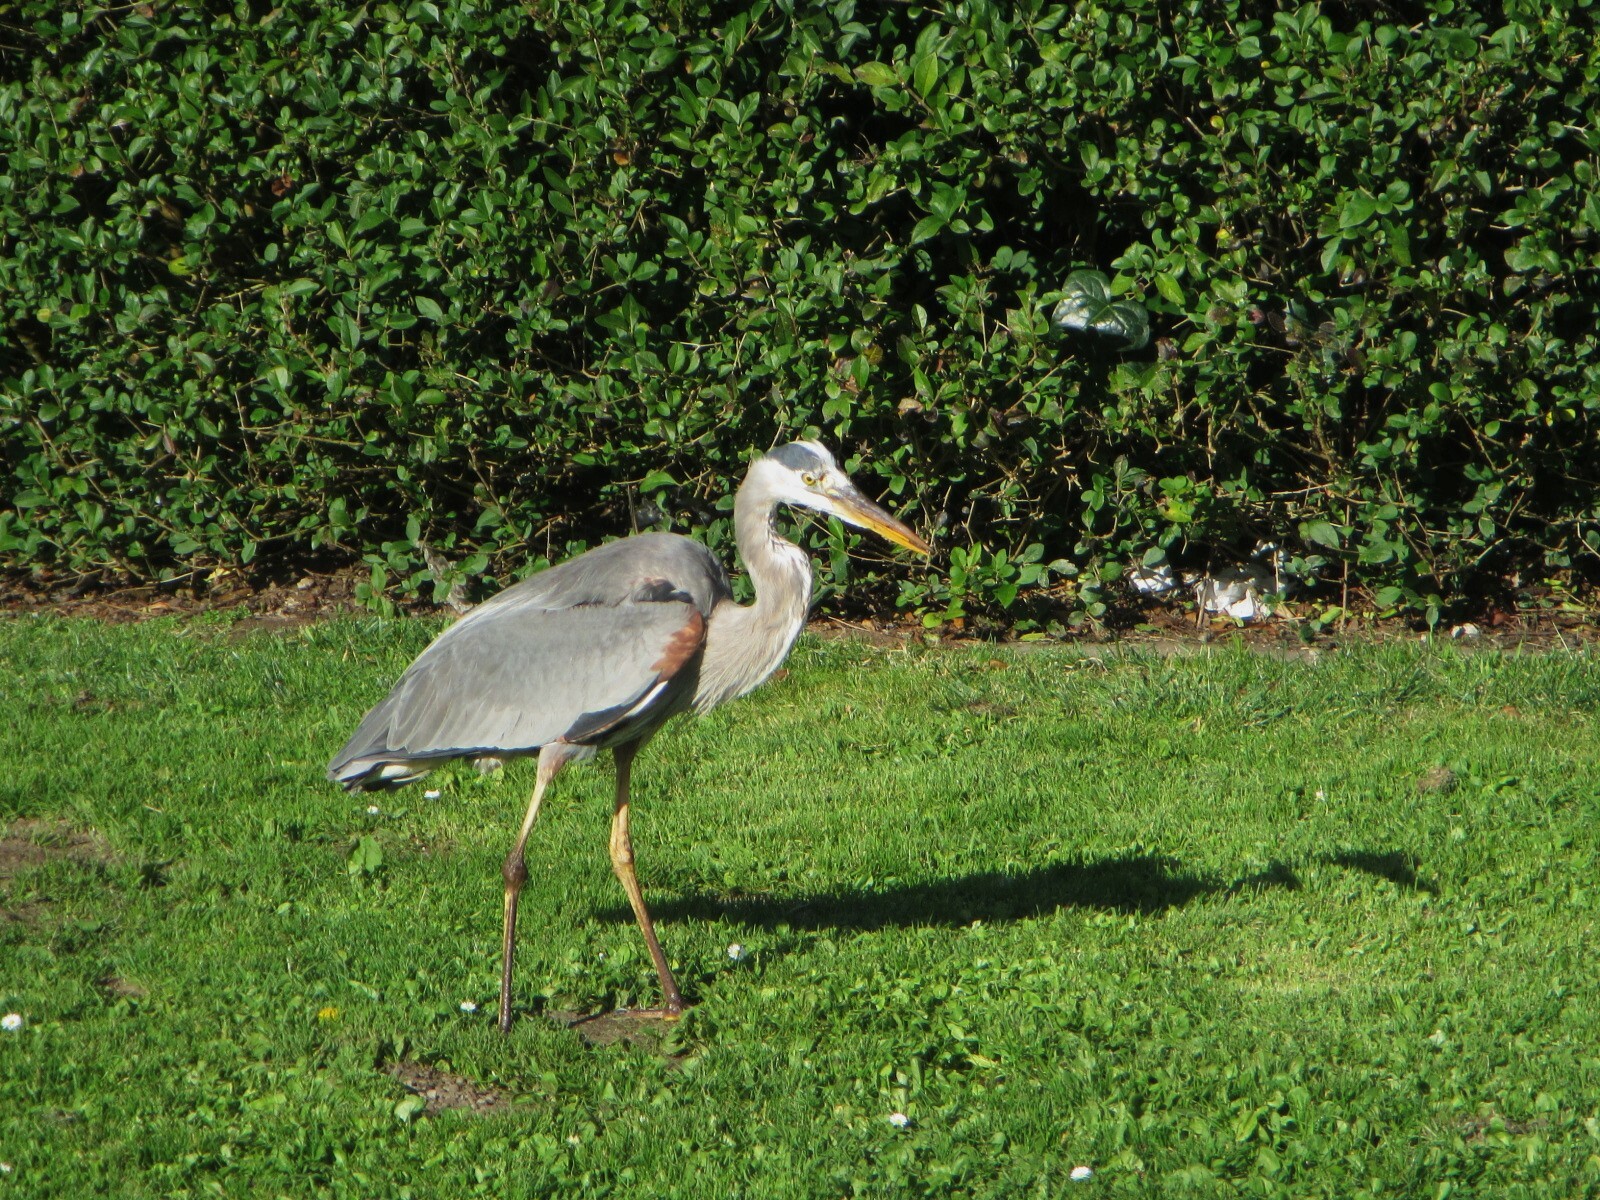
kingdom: Animalia
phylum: Chordata
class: Aves
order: Pelecaniformes
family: Ardeidae
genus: Ardea
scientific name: Ardea herodias
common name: Great blue heron
